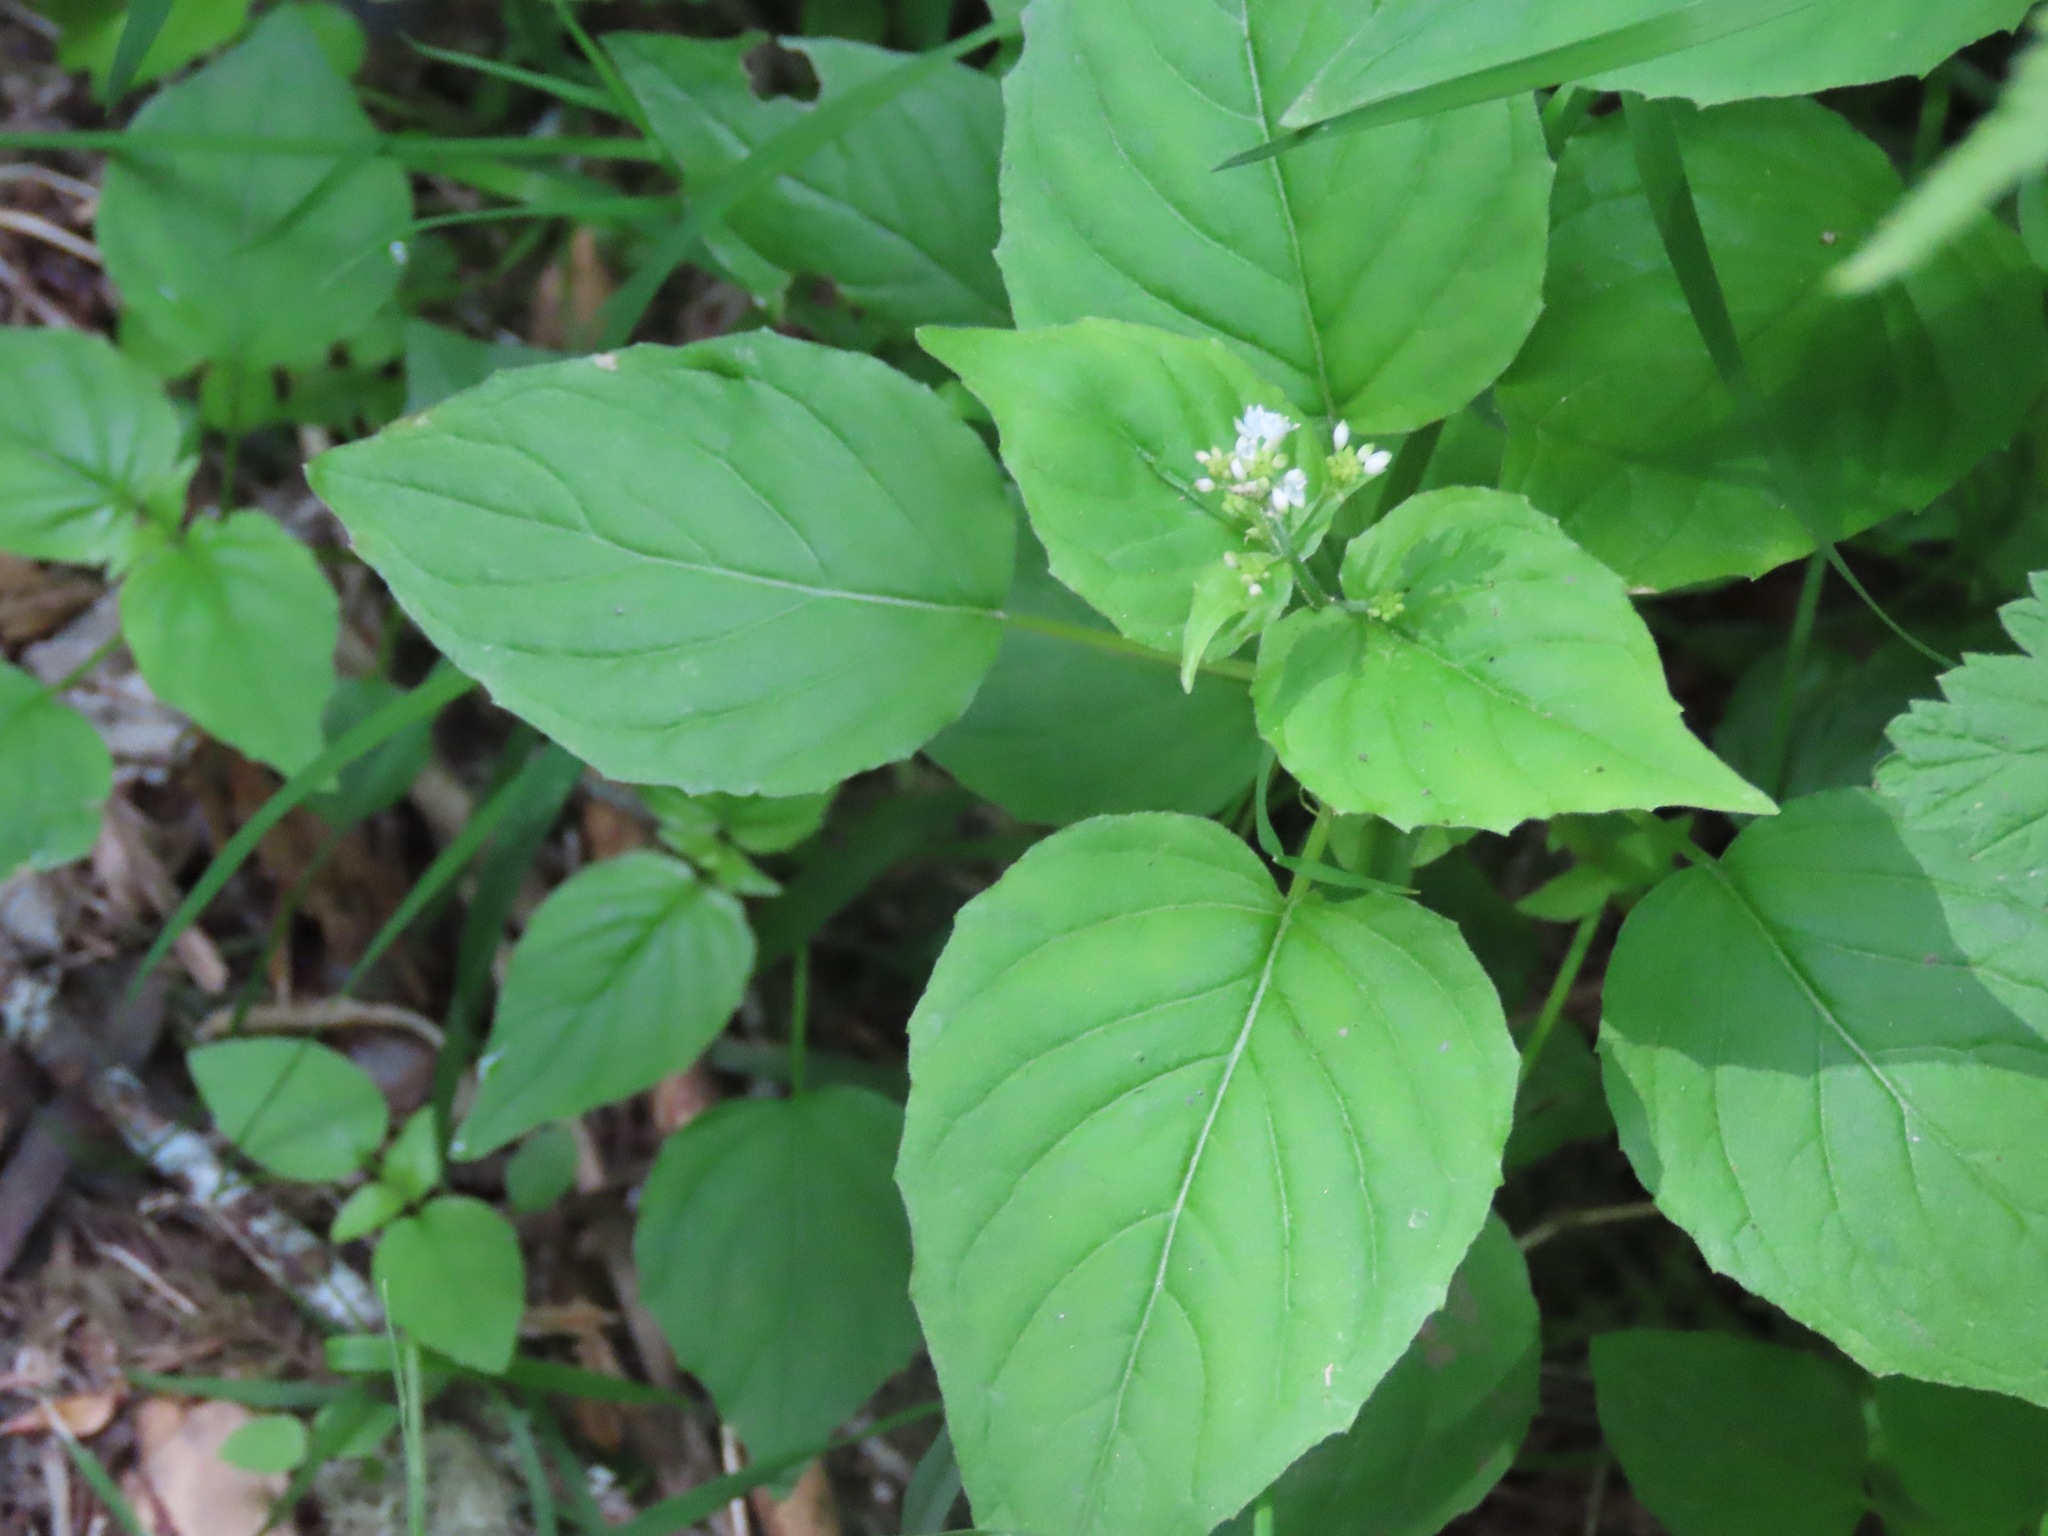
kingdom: Plantae
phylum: Tracheophyta
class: Magnoliopsida
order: Myrtales
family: Onagraceae
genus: Circaea
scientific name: Circaea alpina
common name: Alpine enchanter's-nightshade
